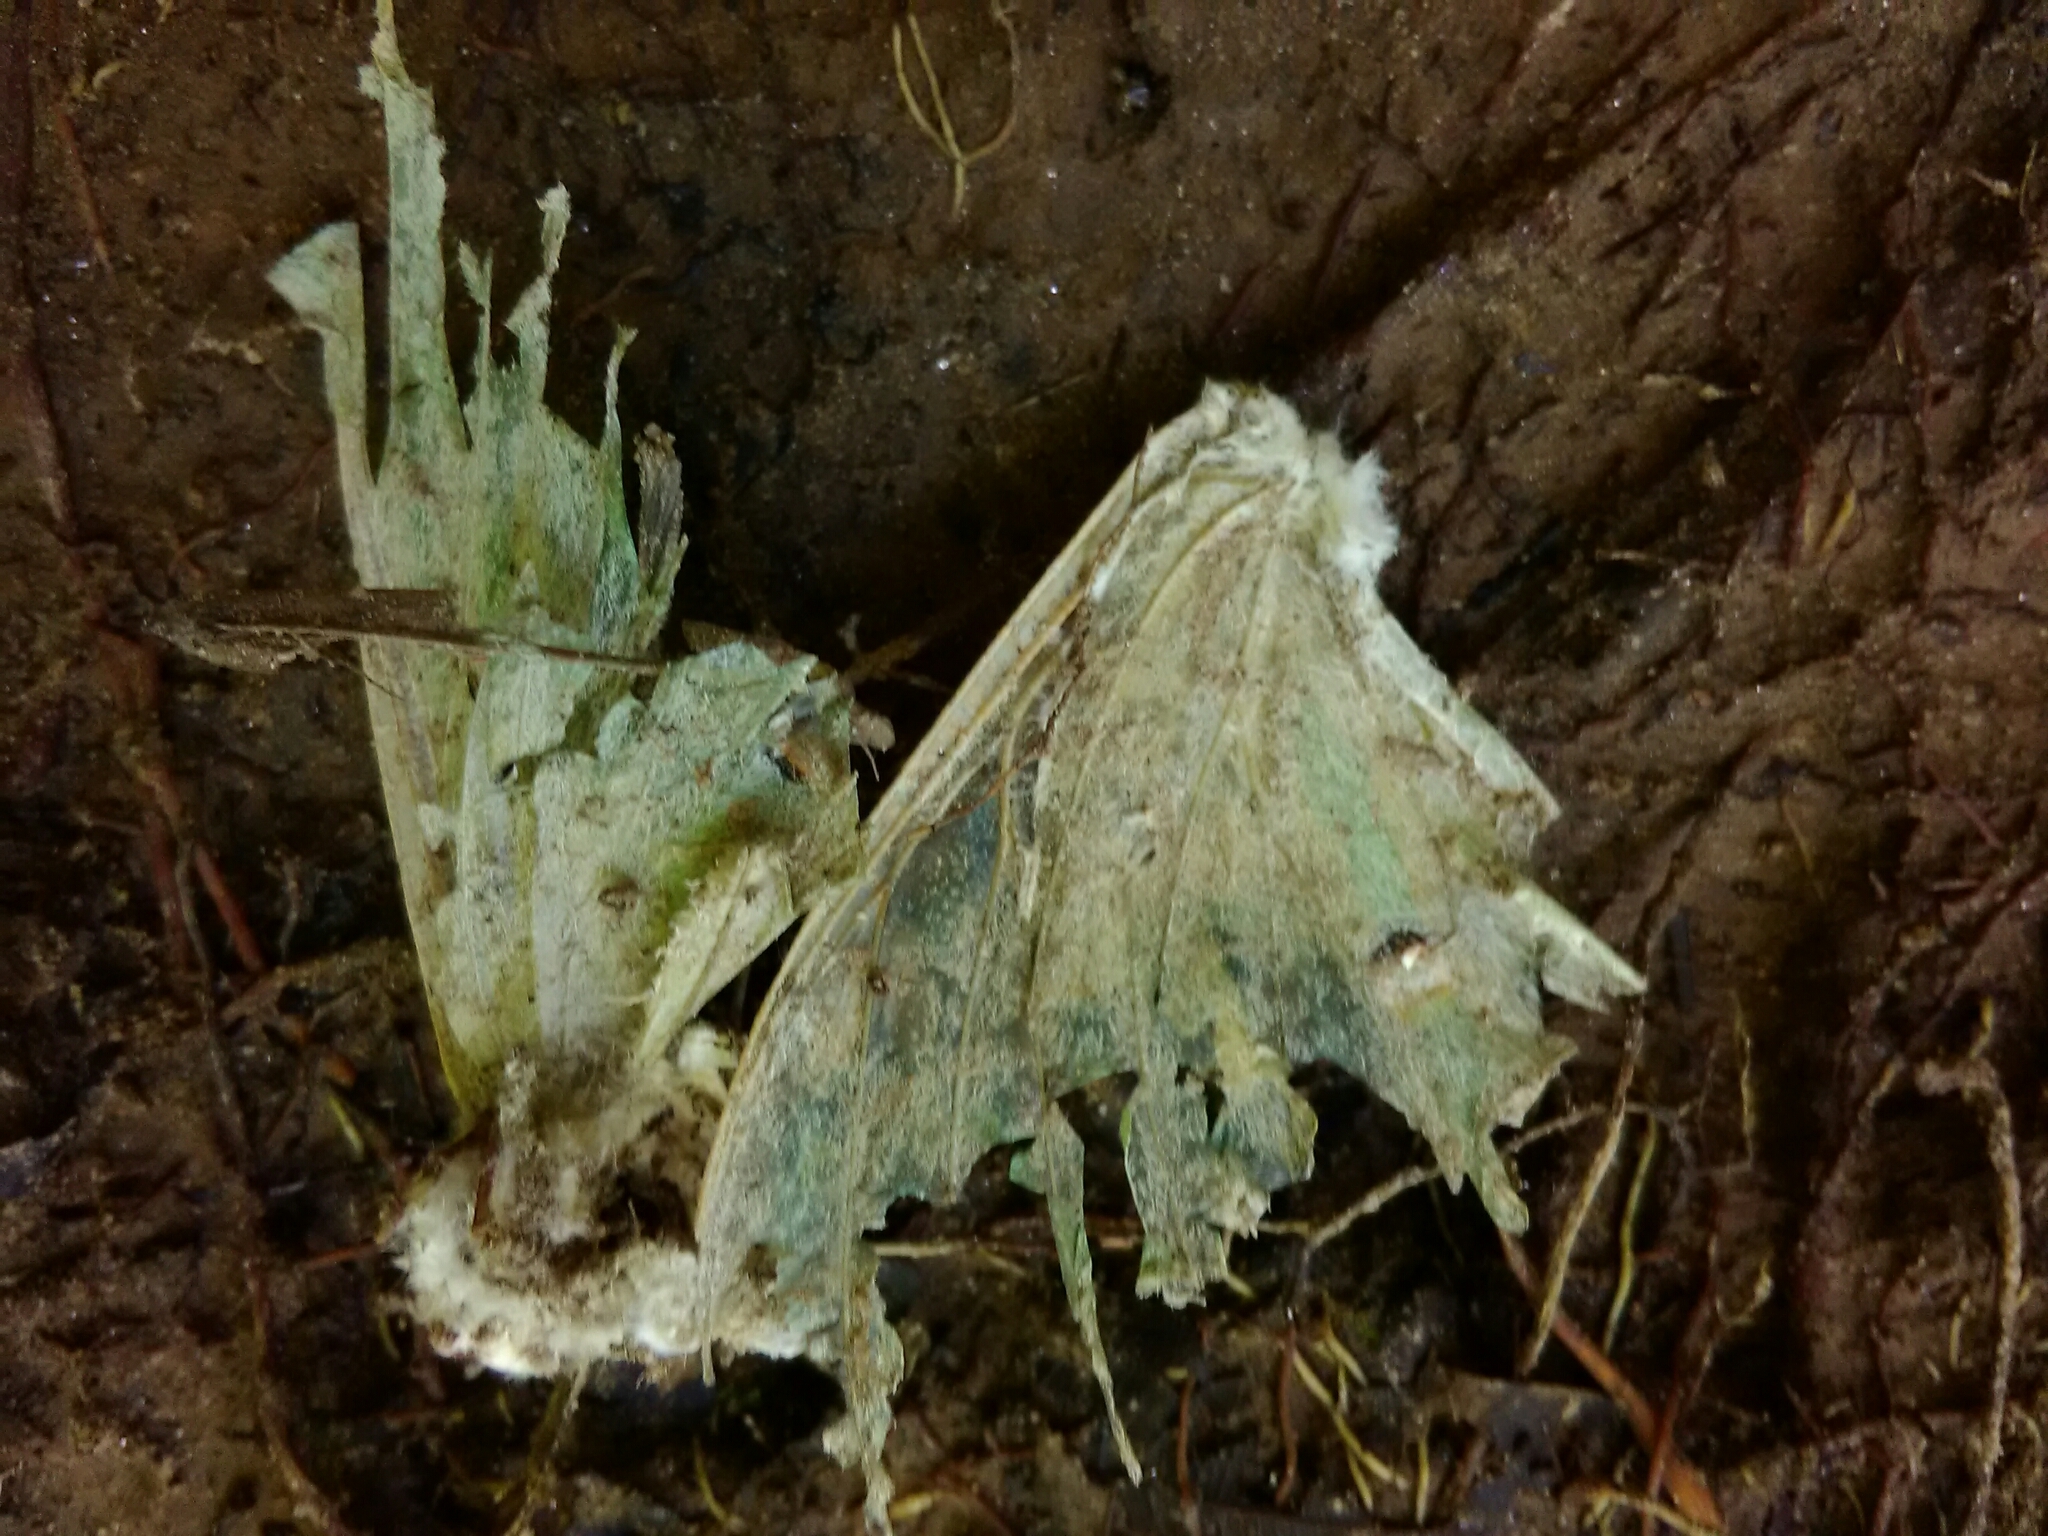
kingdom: Animalia
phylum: Arthropoda
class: Insecta
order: Lepidoptera
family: Saturniidae
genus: Actias
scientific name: Actias luna
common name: Luna moth
